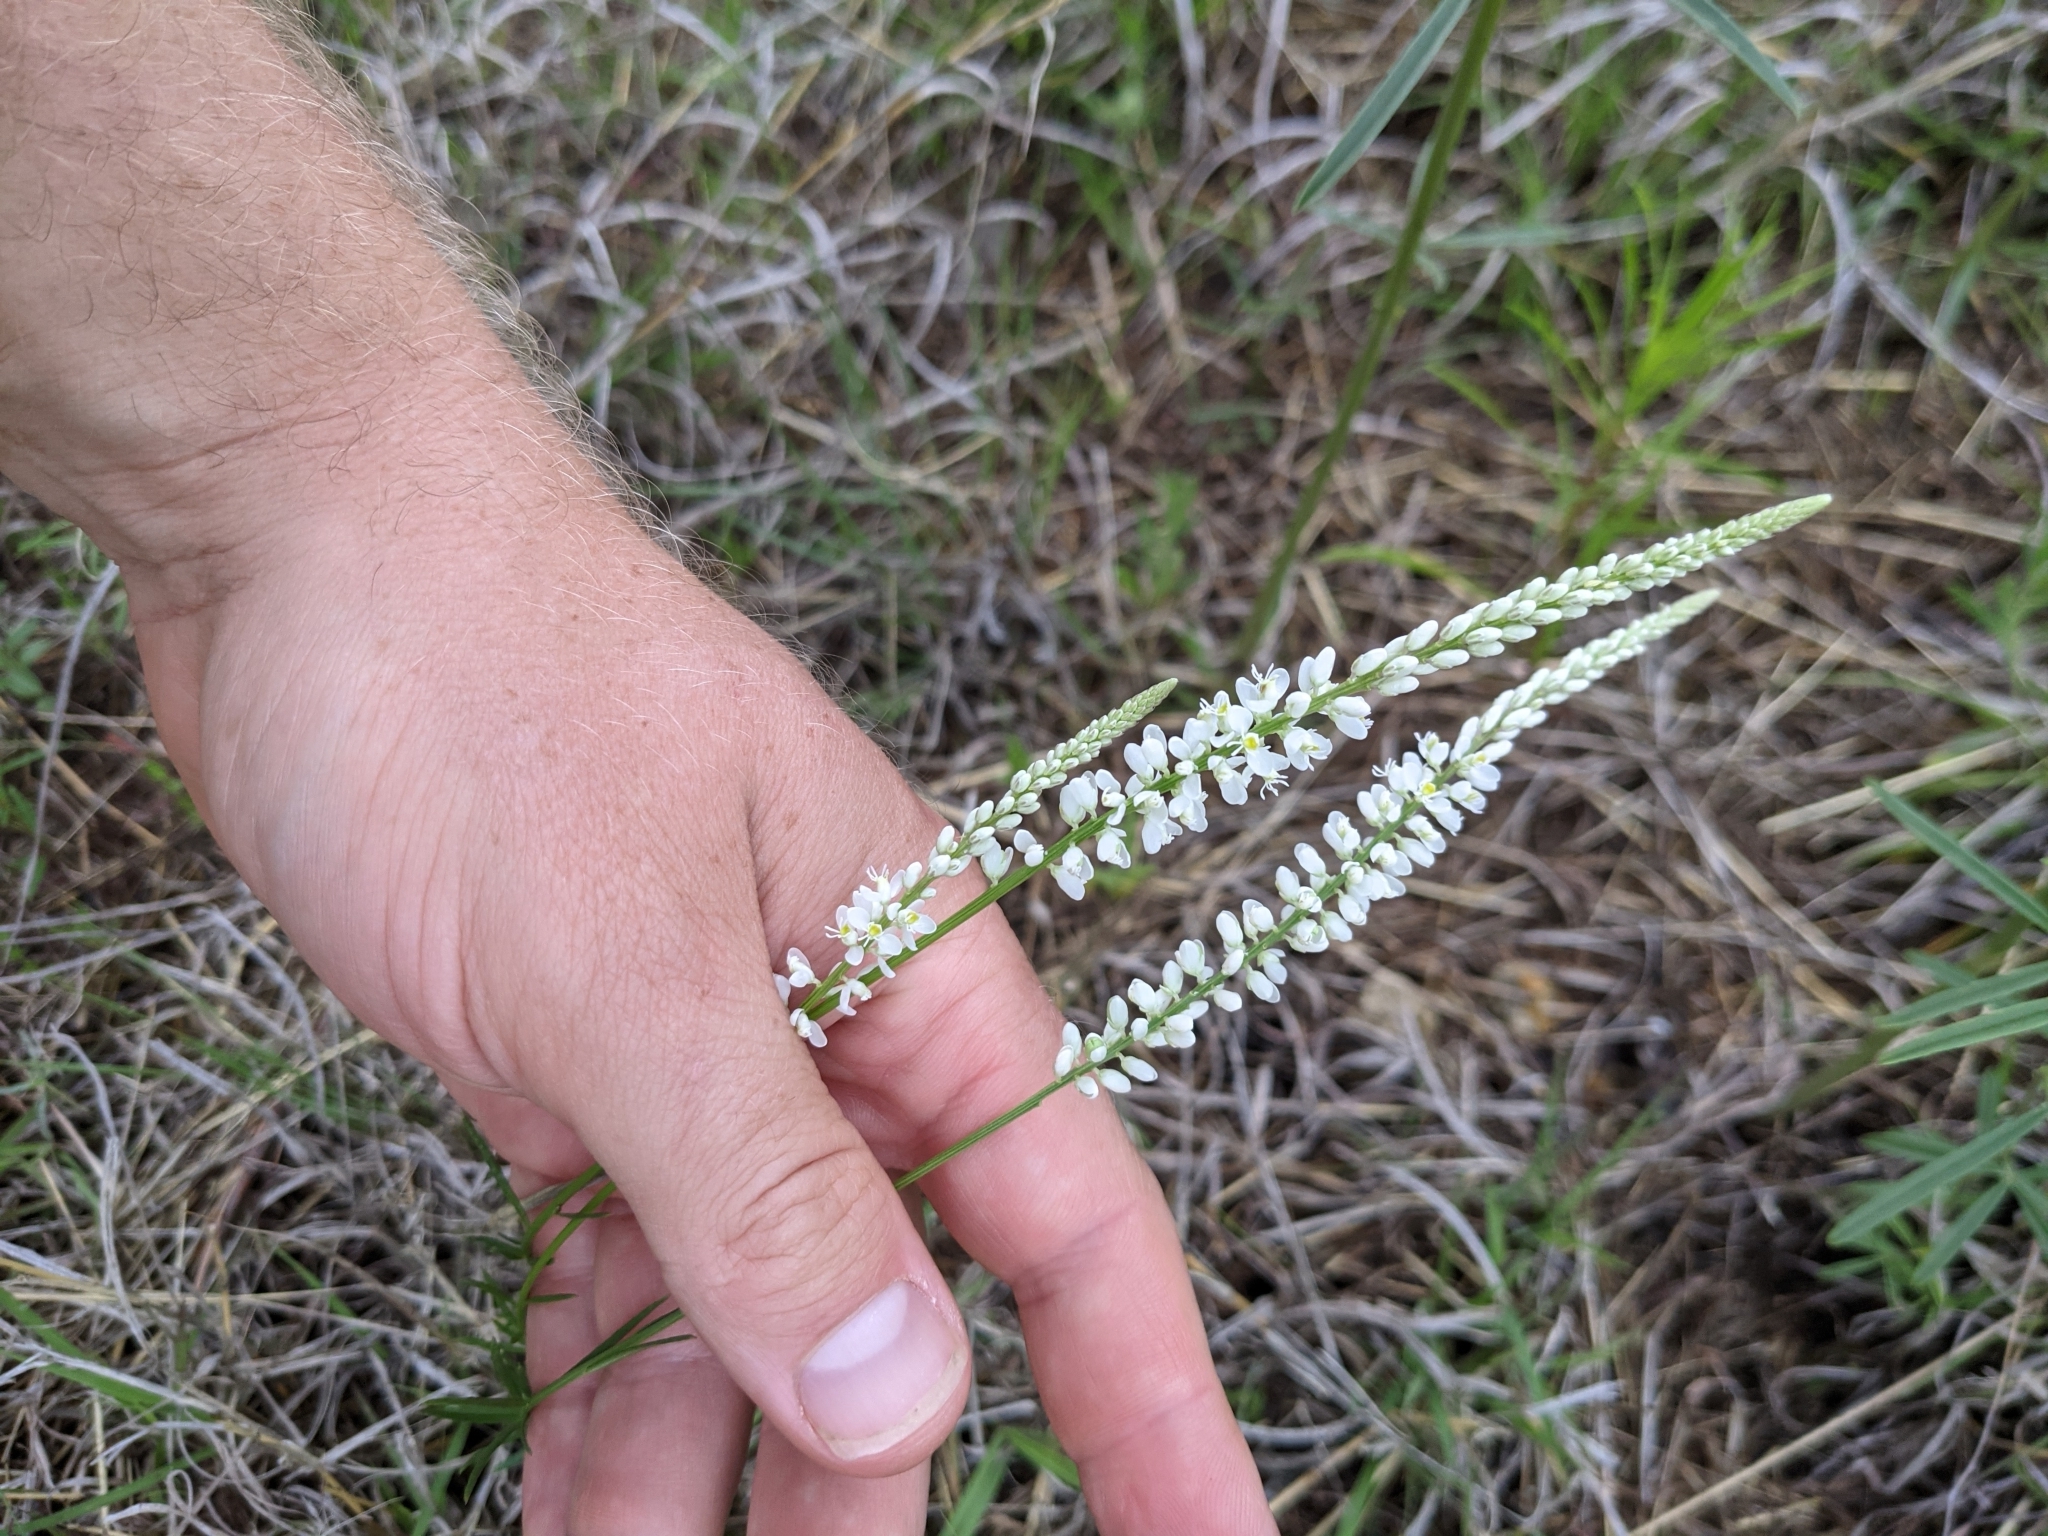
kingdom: Plantae
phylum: Tracheophyta
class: Magnoliopsida
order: Fabales
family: Polygalaceae
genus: Polygala
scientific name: Polygala alba
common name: White milkwort
